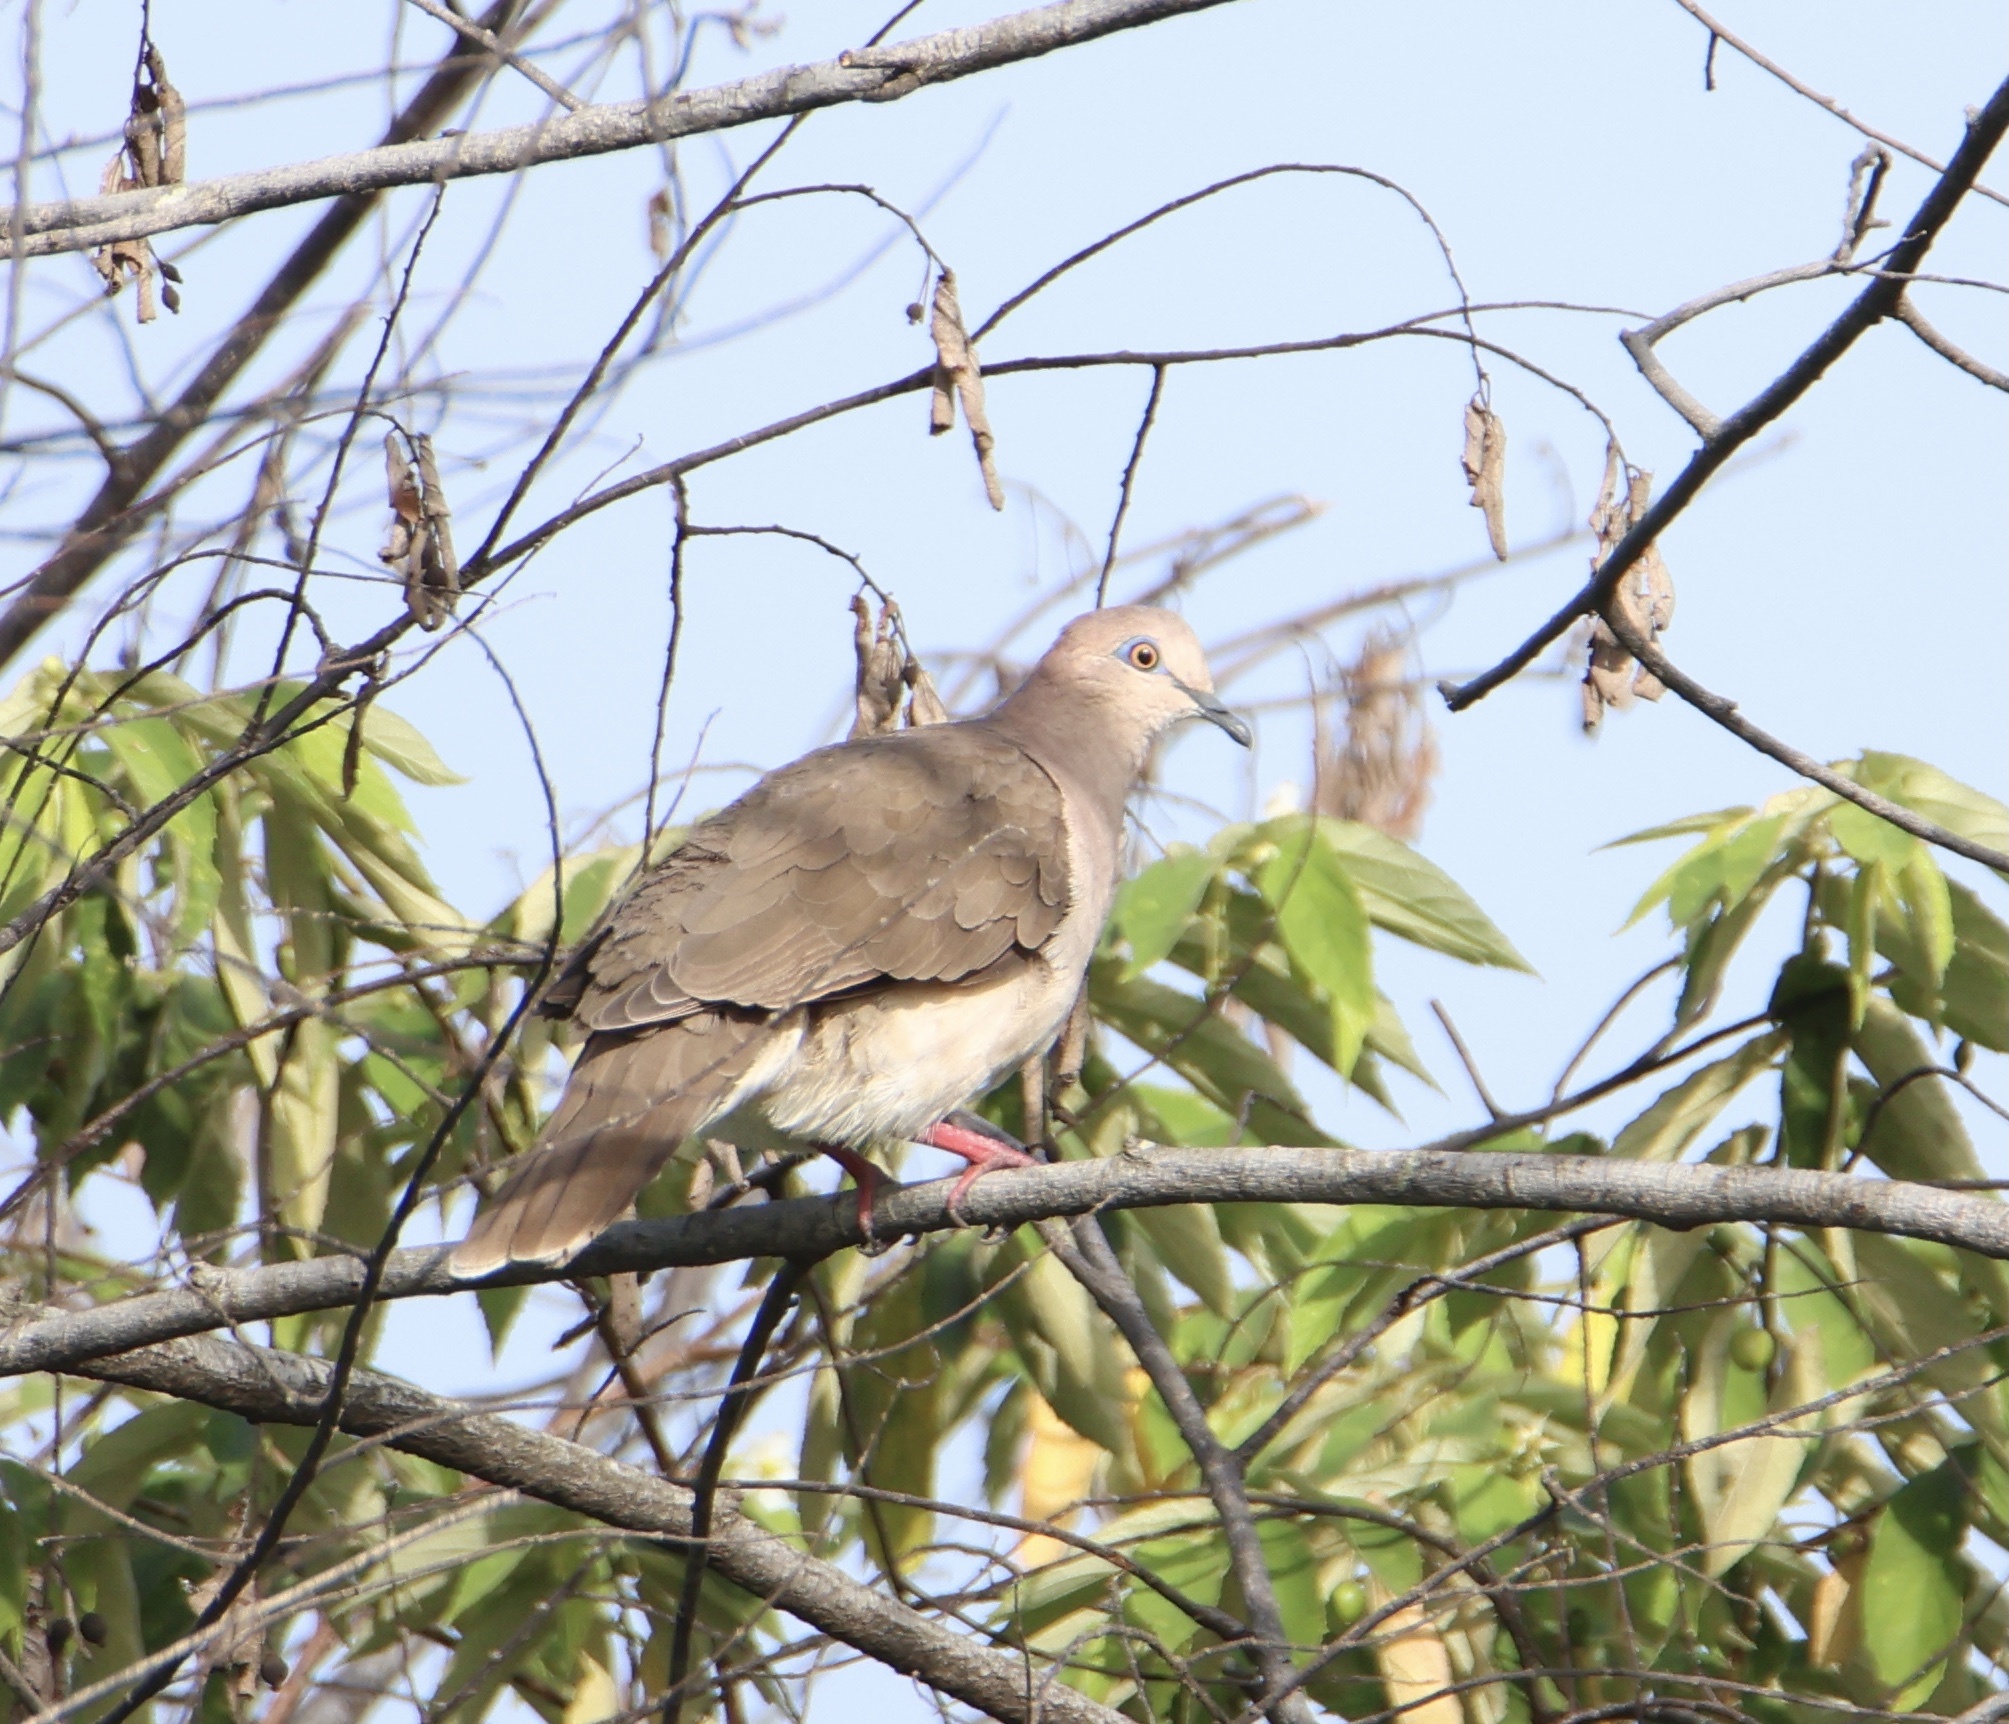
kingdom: Animalia
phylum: Chordata
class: Aves
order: Columbiformes
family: Columbidae
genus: Leptotila
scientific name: Leptotila verreauxi
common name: White-tipped dove
